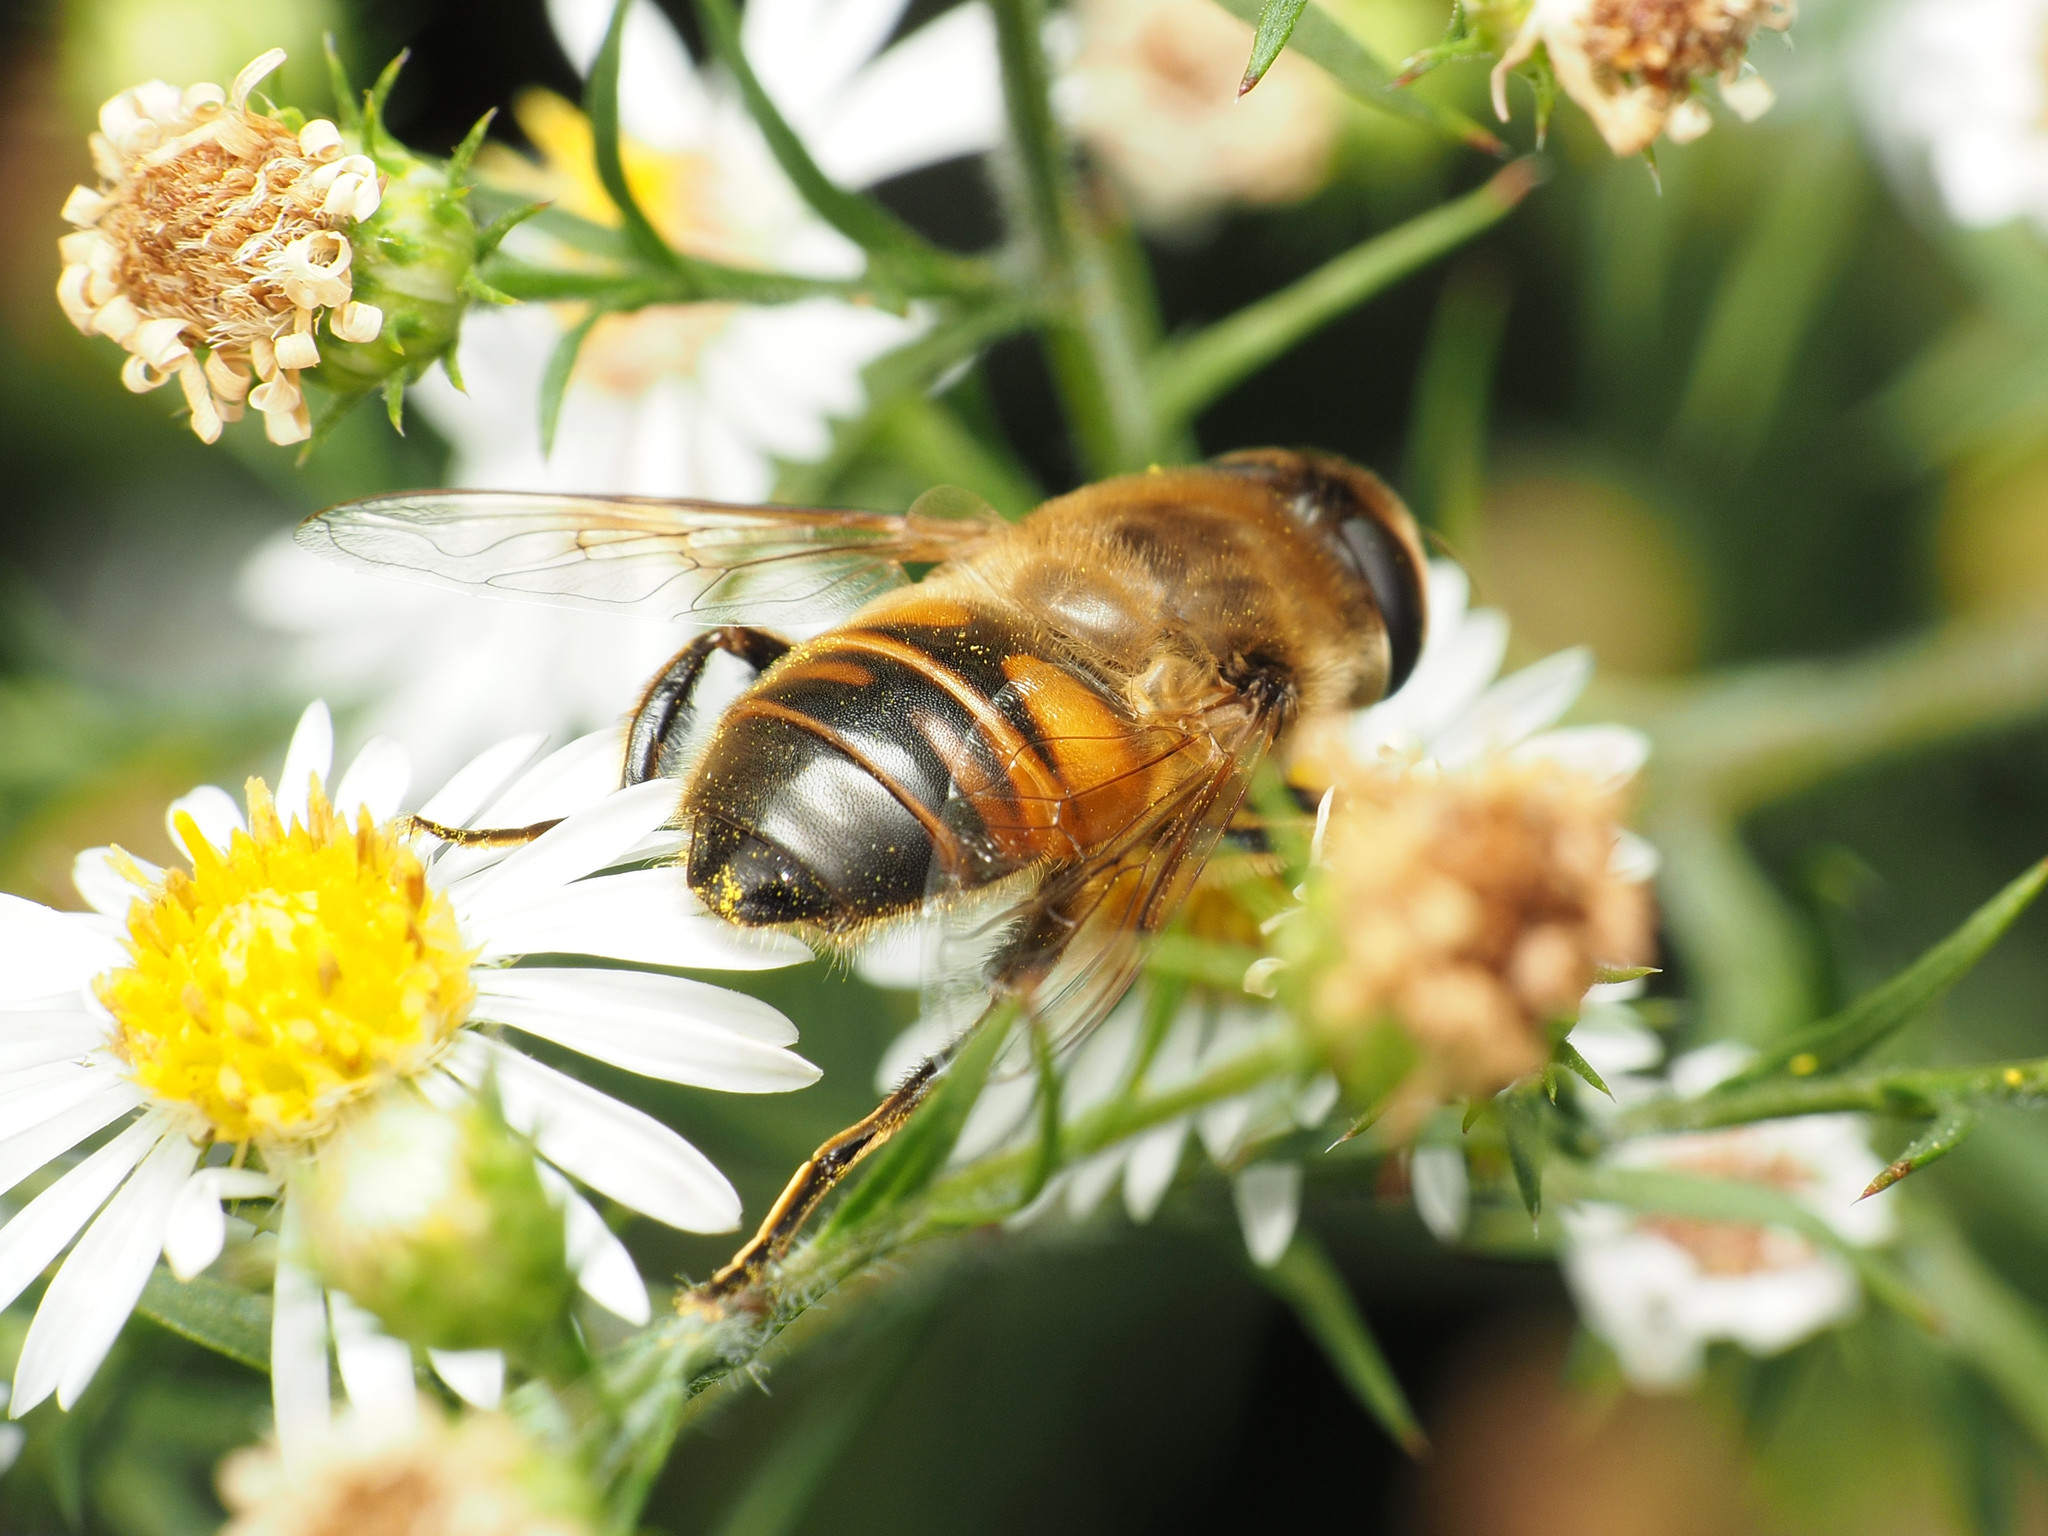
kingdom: Animalia
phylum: Arthropoda
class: Insecta
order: Diptera
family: Syrphidae
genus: Eristalis
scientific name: Eristalis tenax
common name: Drone fly
